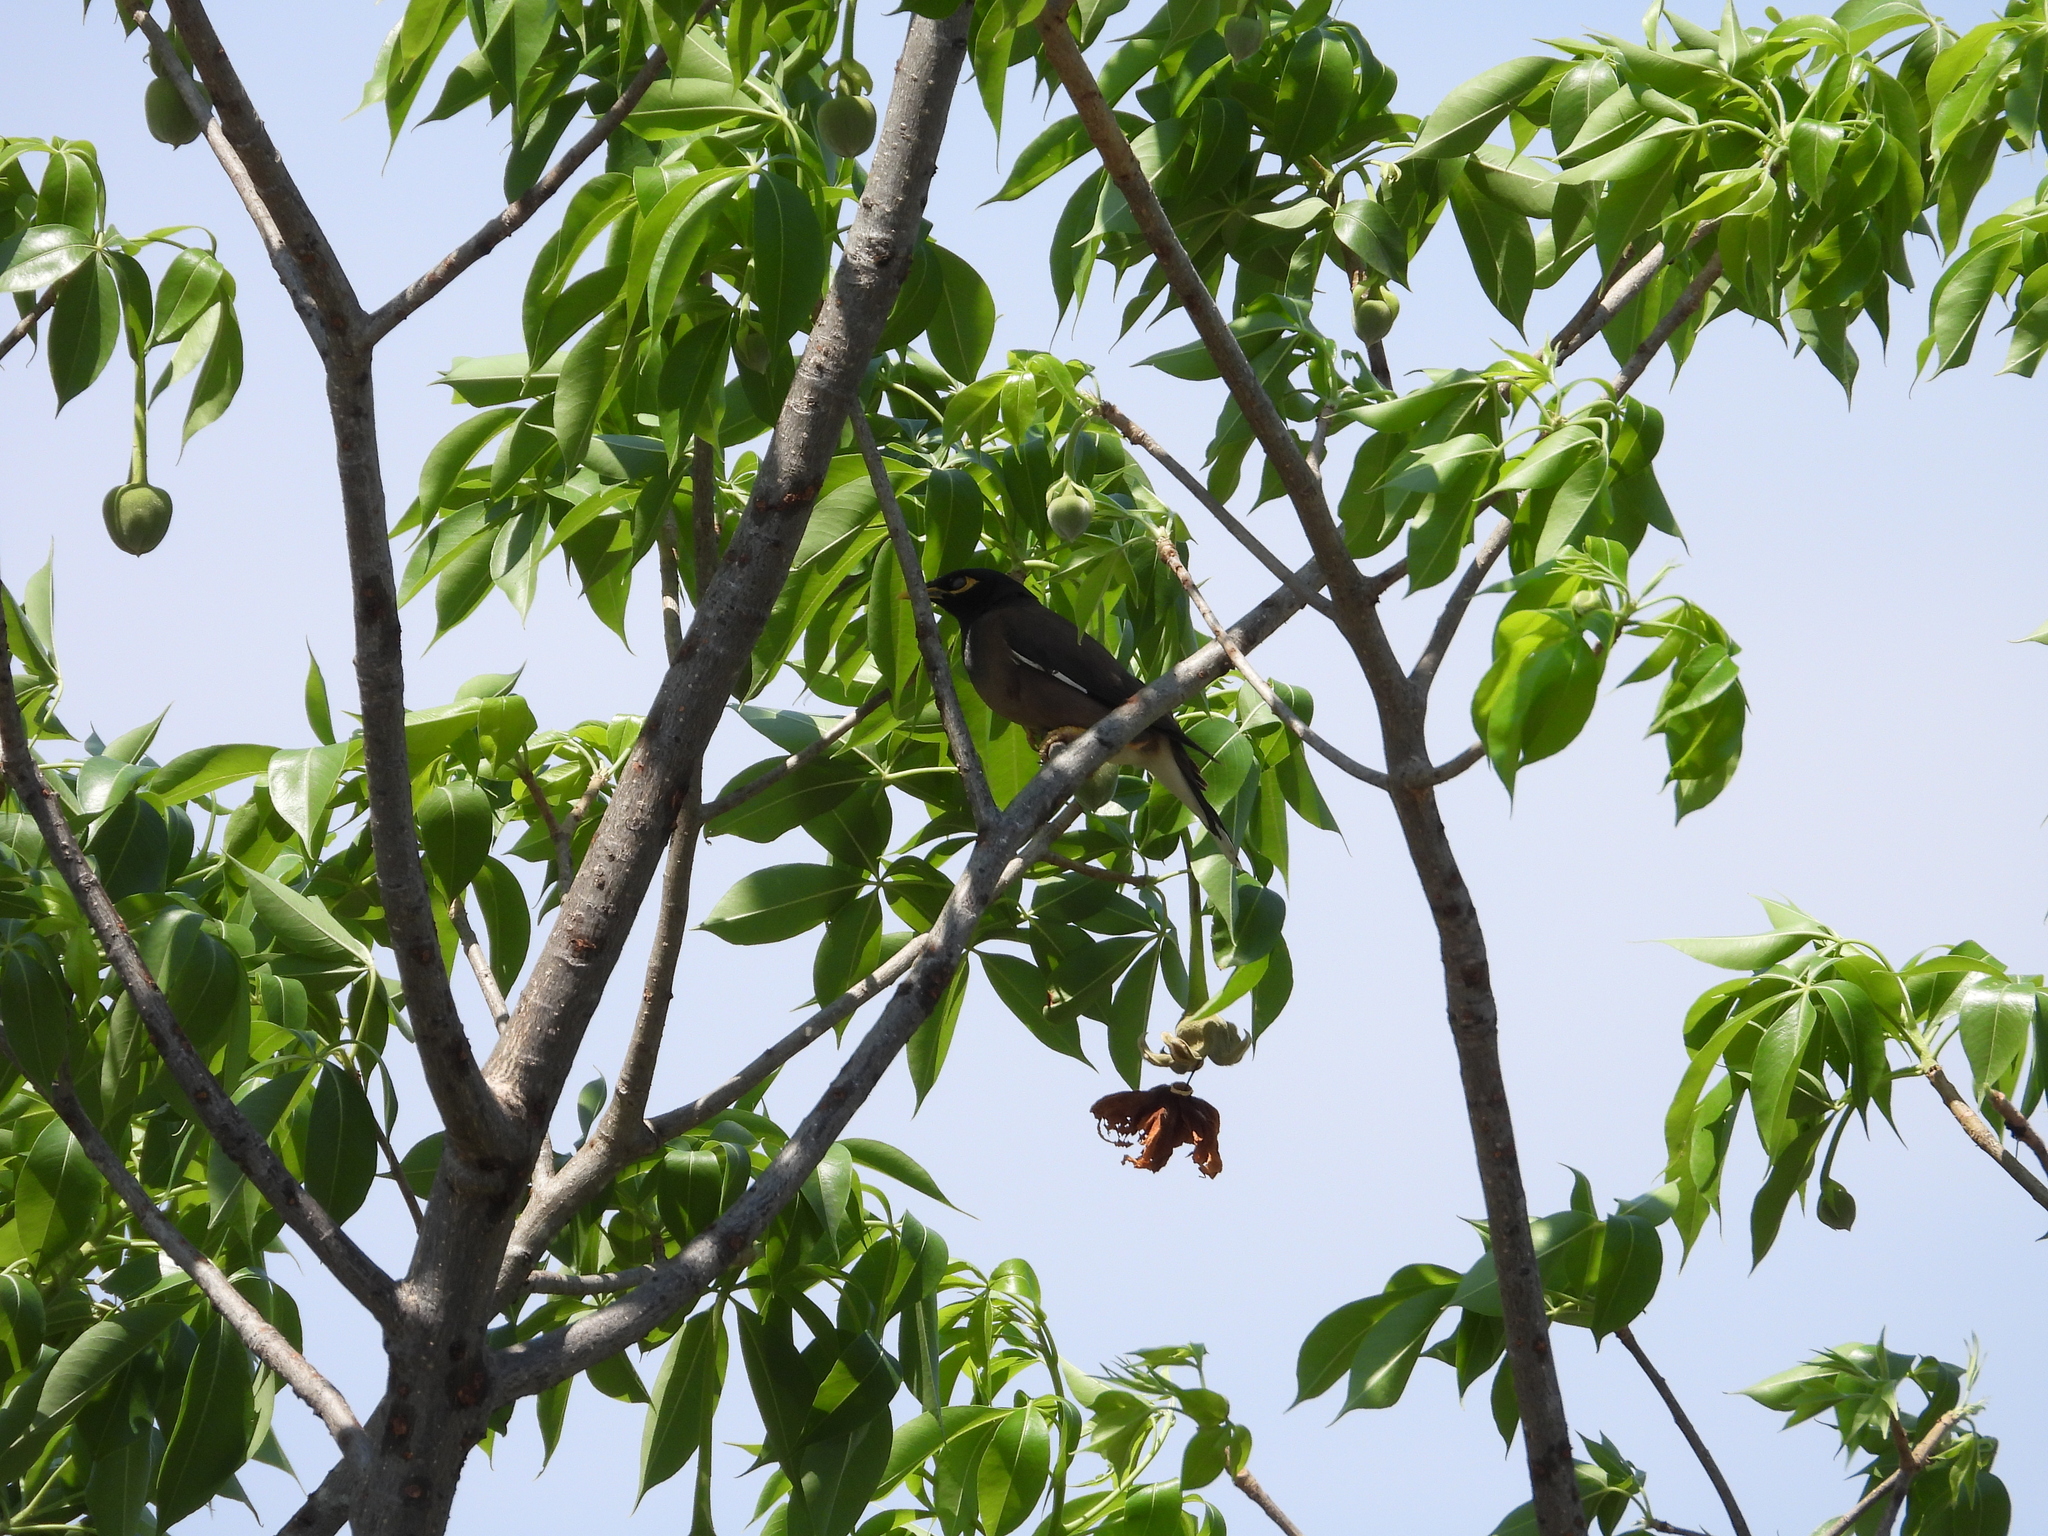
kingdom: Animalia
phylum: Chordata
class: Aves
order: Passeriformes
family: Sturnidae
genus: Acridotheres
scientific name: Acridotheres tristis
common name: Common myna
